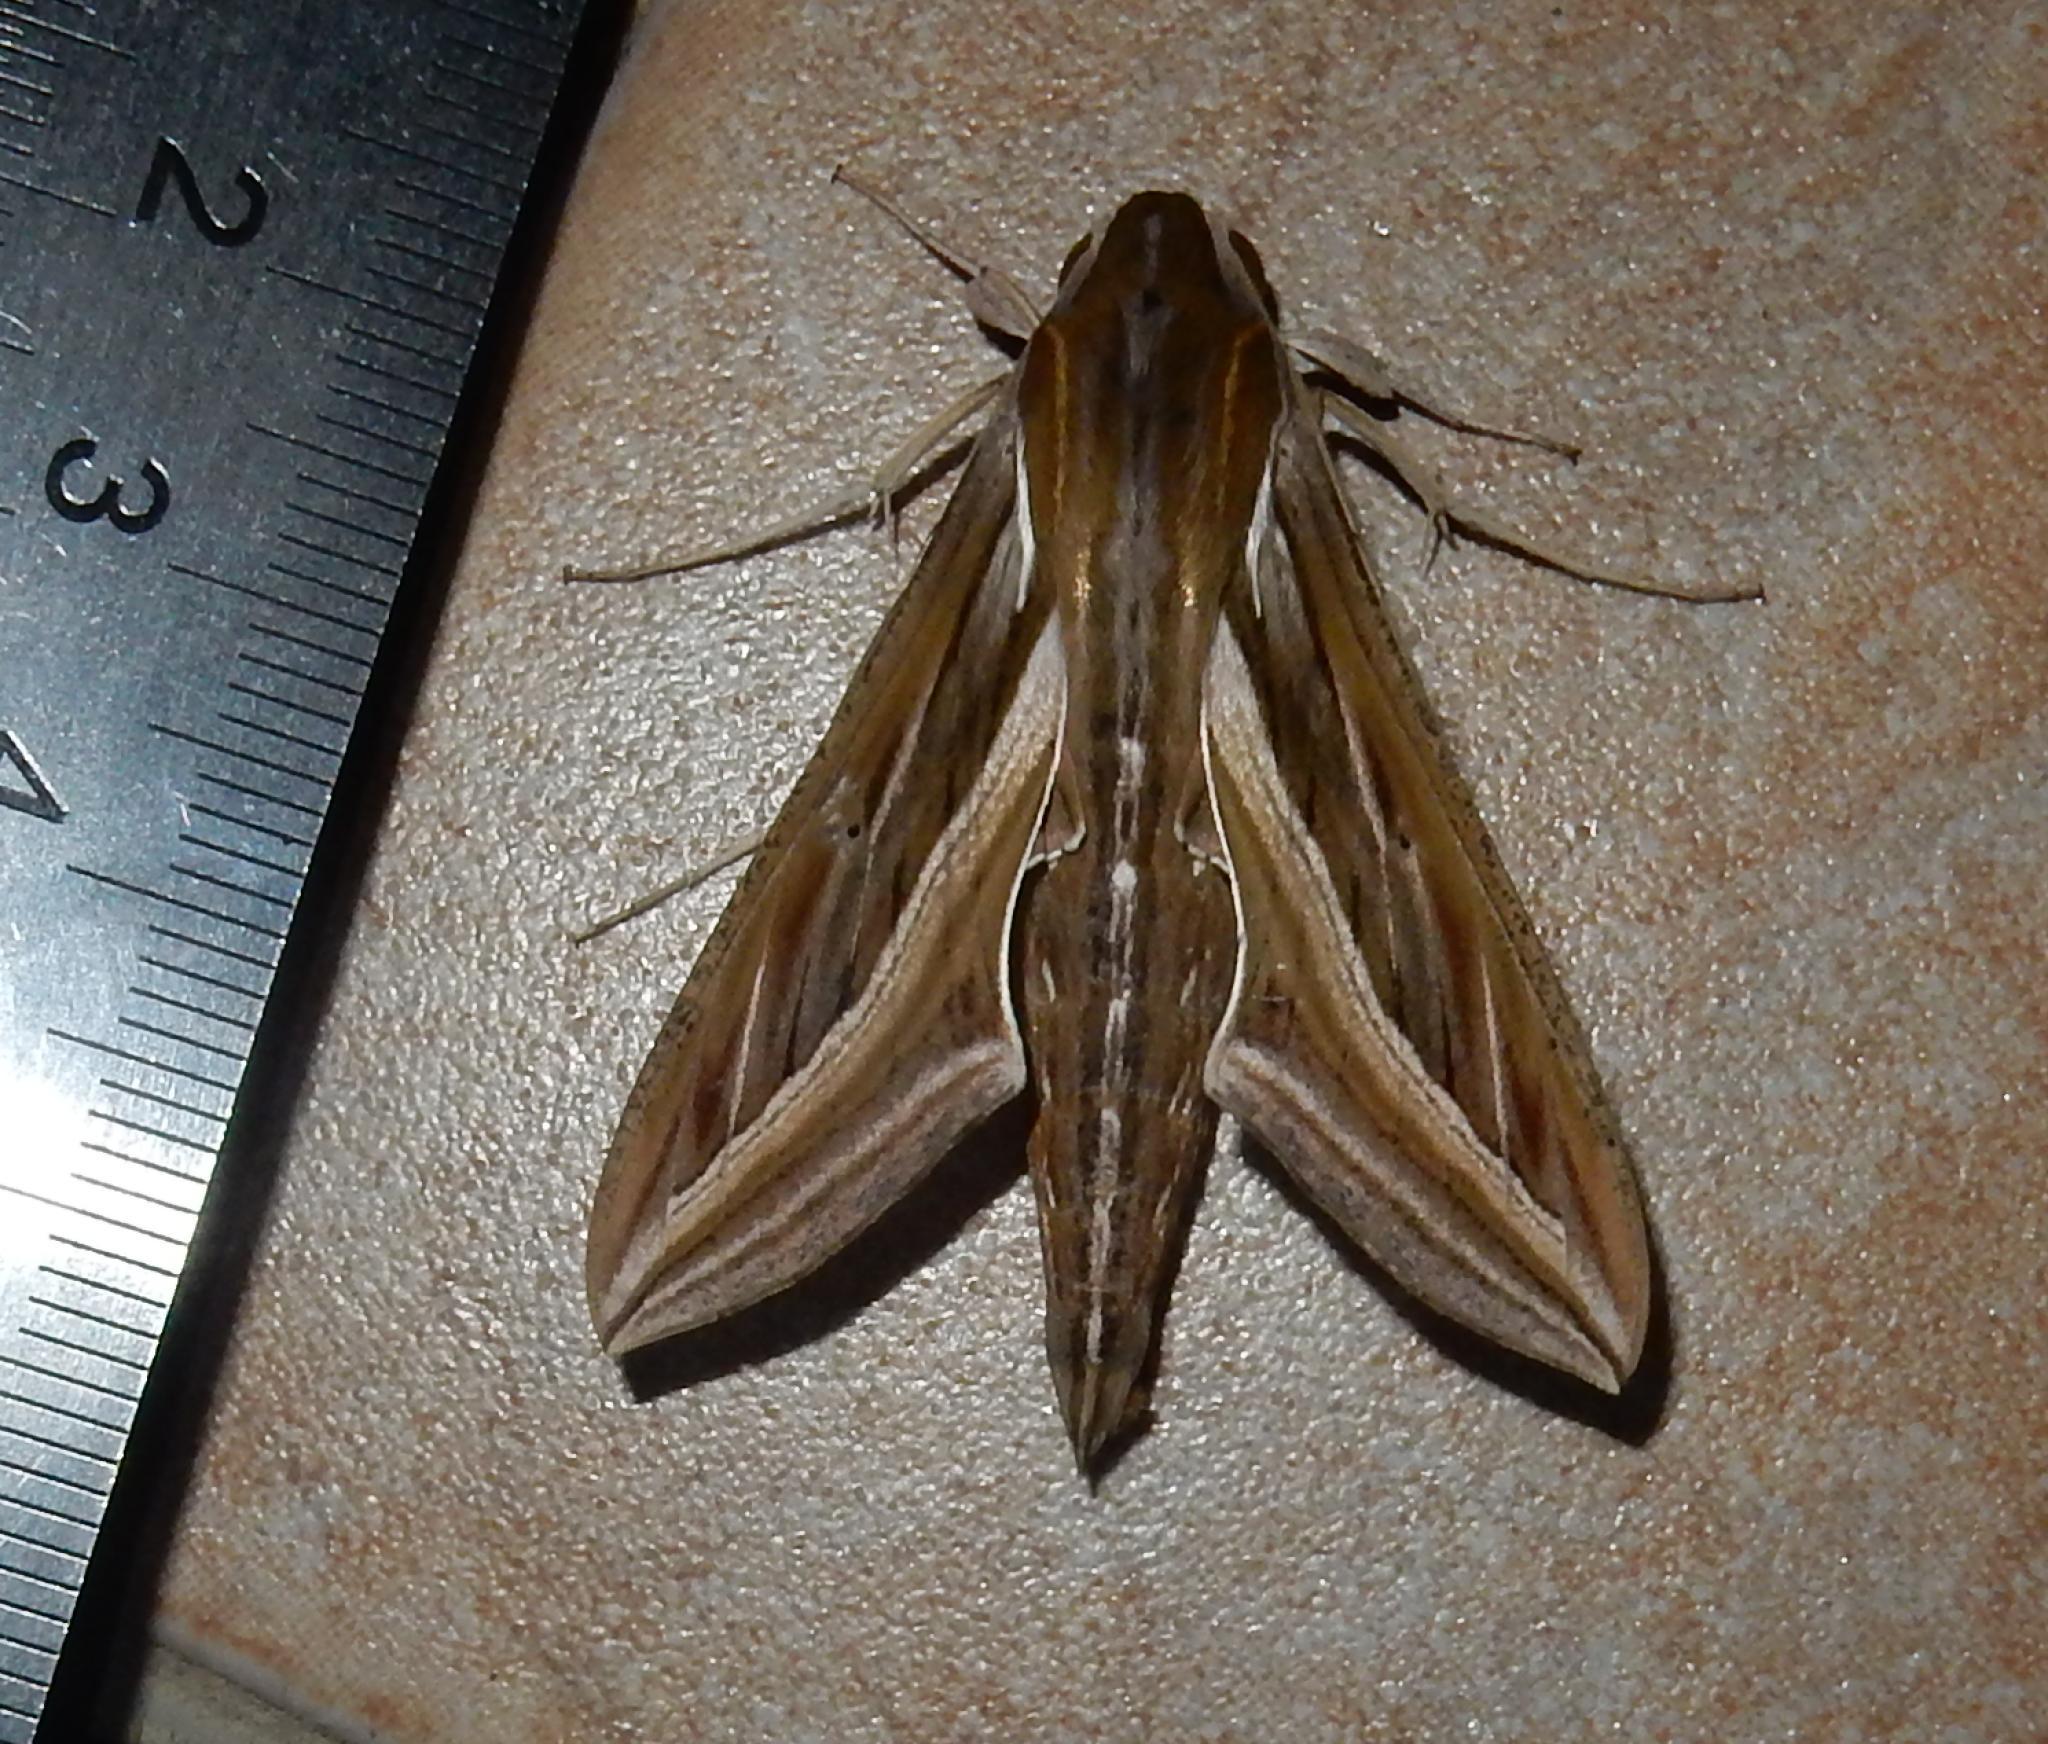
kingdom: Animalia
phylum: Arthropoda
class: Insecta
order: Lepidoptera
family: Sphingidae
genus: Hippotion
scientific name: Hippotion celerio
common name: Silver-striped hawk-moth
